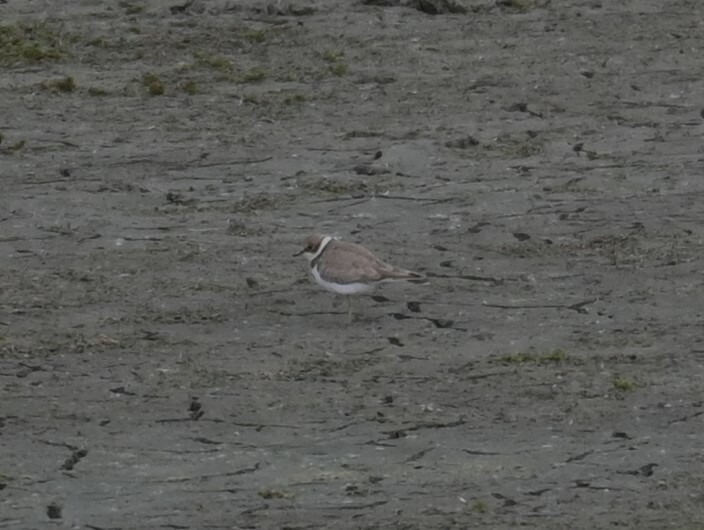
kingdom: Animalia
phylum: Chordata
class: Aves
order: Charadriiformes
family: Charadriidae
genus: Charadrius
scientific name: Charadrius hiaticula
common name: Common ringed plover
